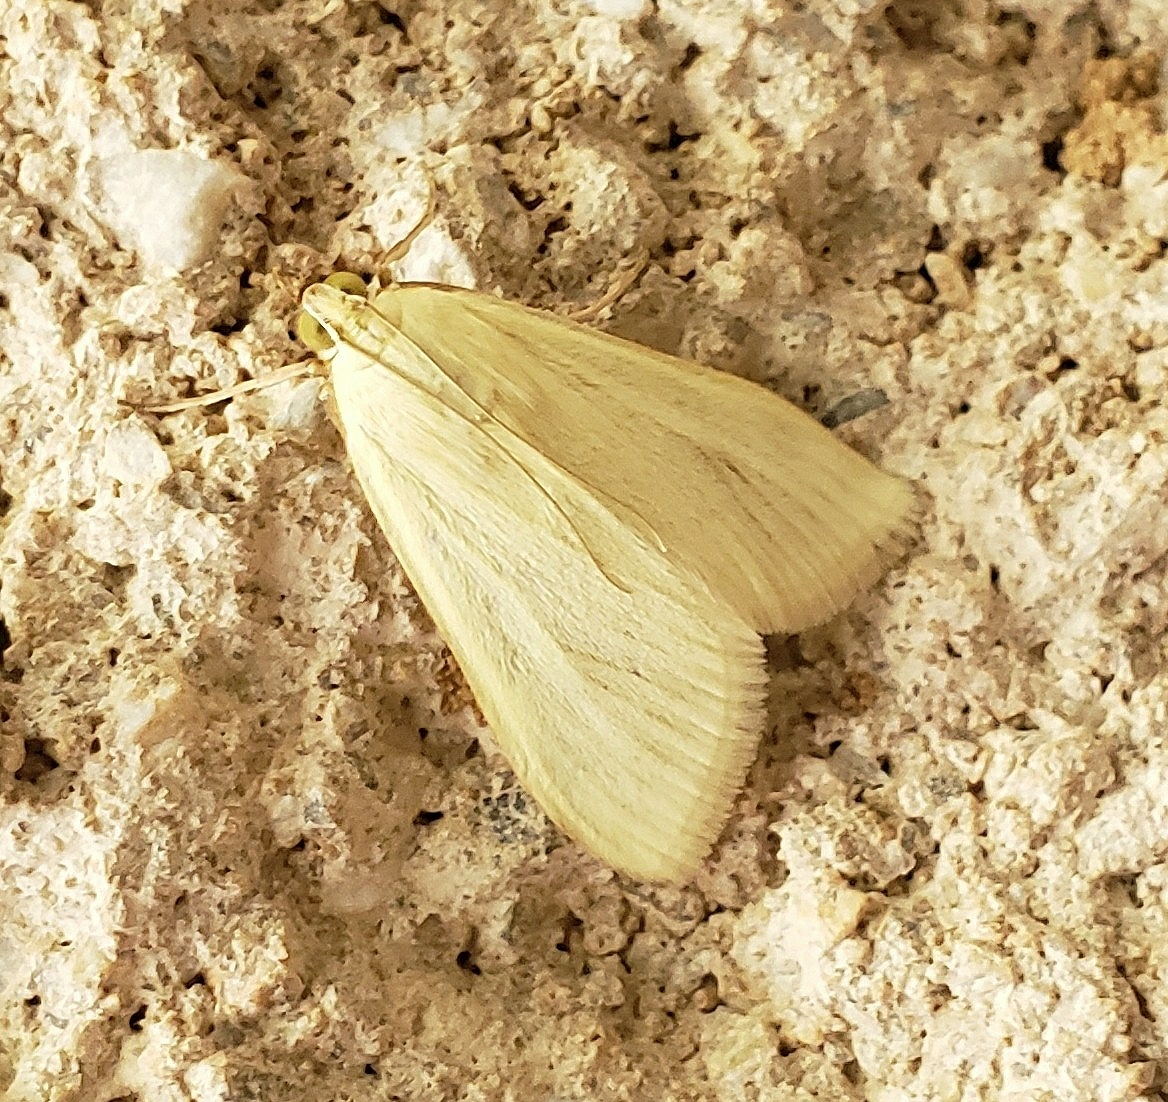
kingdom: Animalia
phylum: Arthropoda
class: Insecta
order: Lepidoptera
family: Crambidae
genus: Sitochroa
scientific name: Sitochroa palealis
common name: Greenish-yellow sitochroa moth
